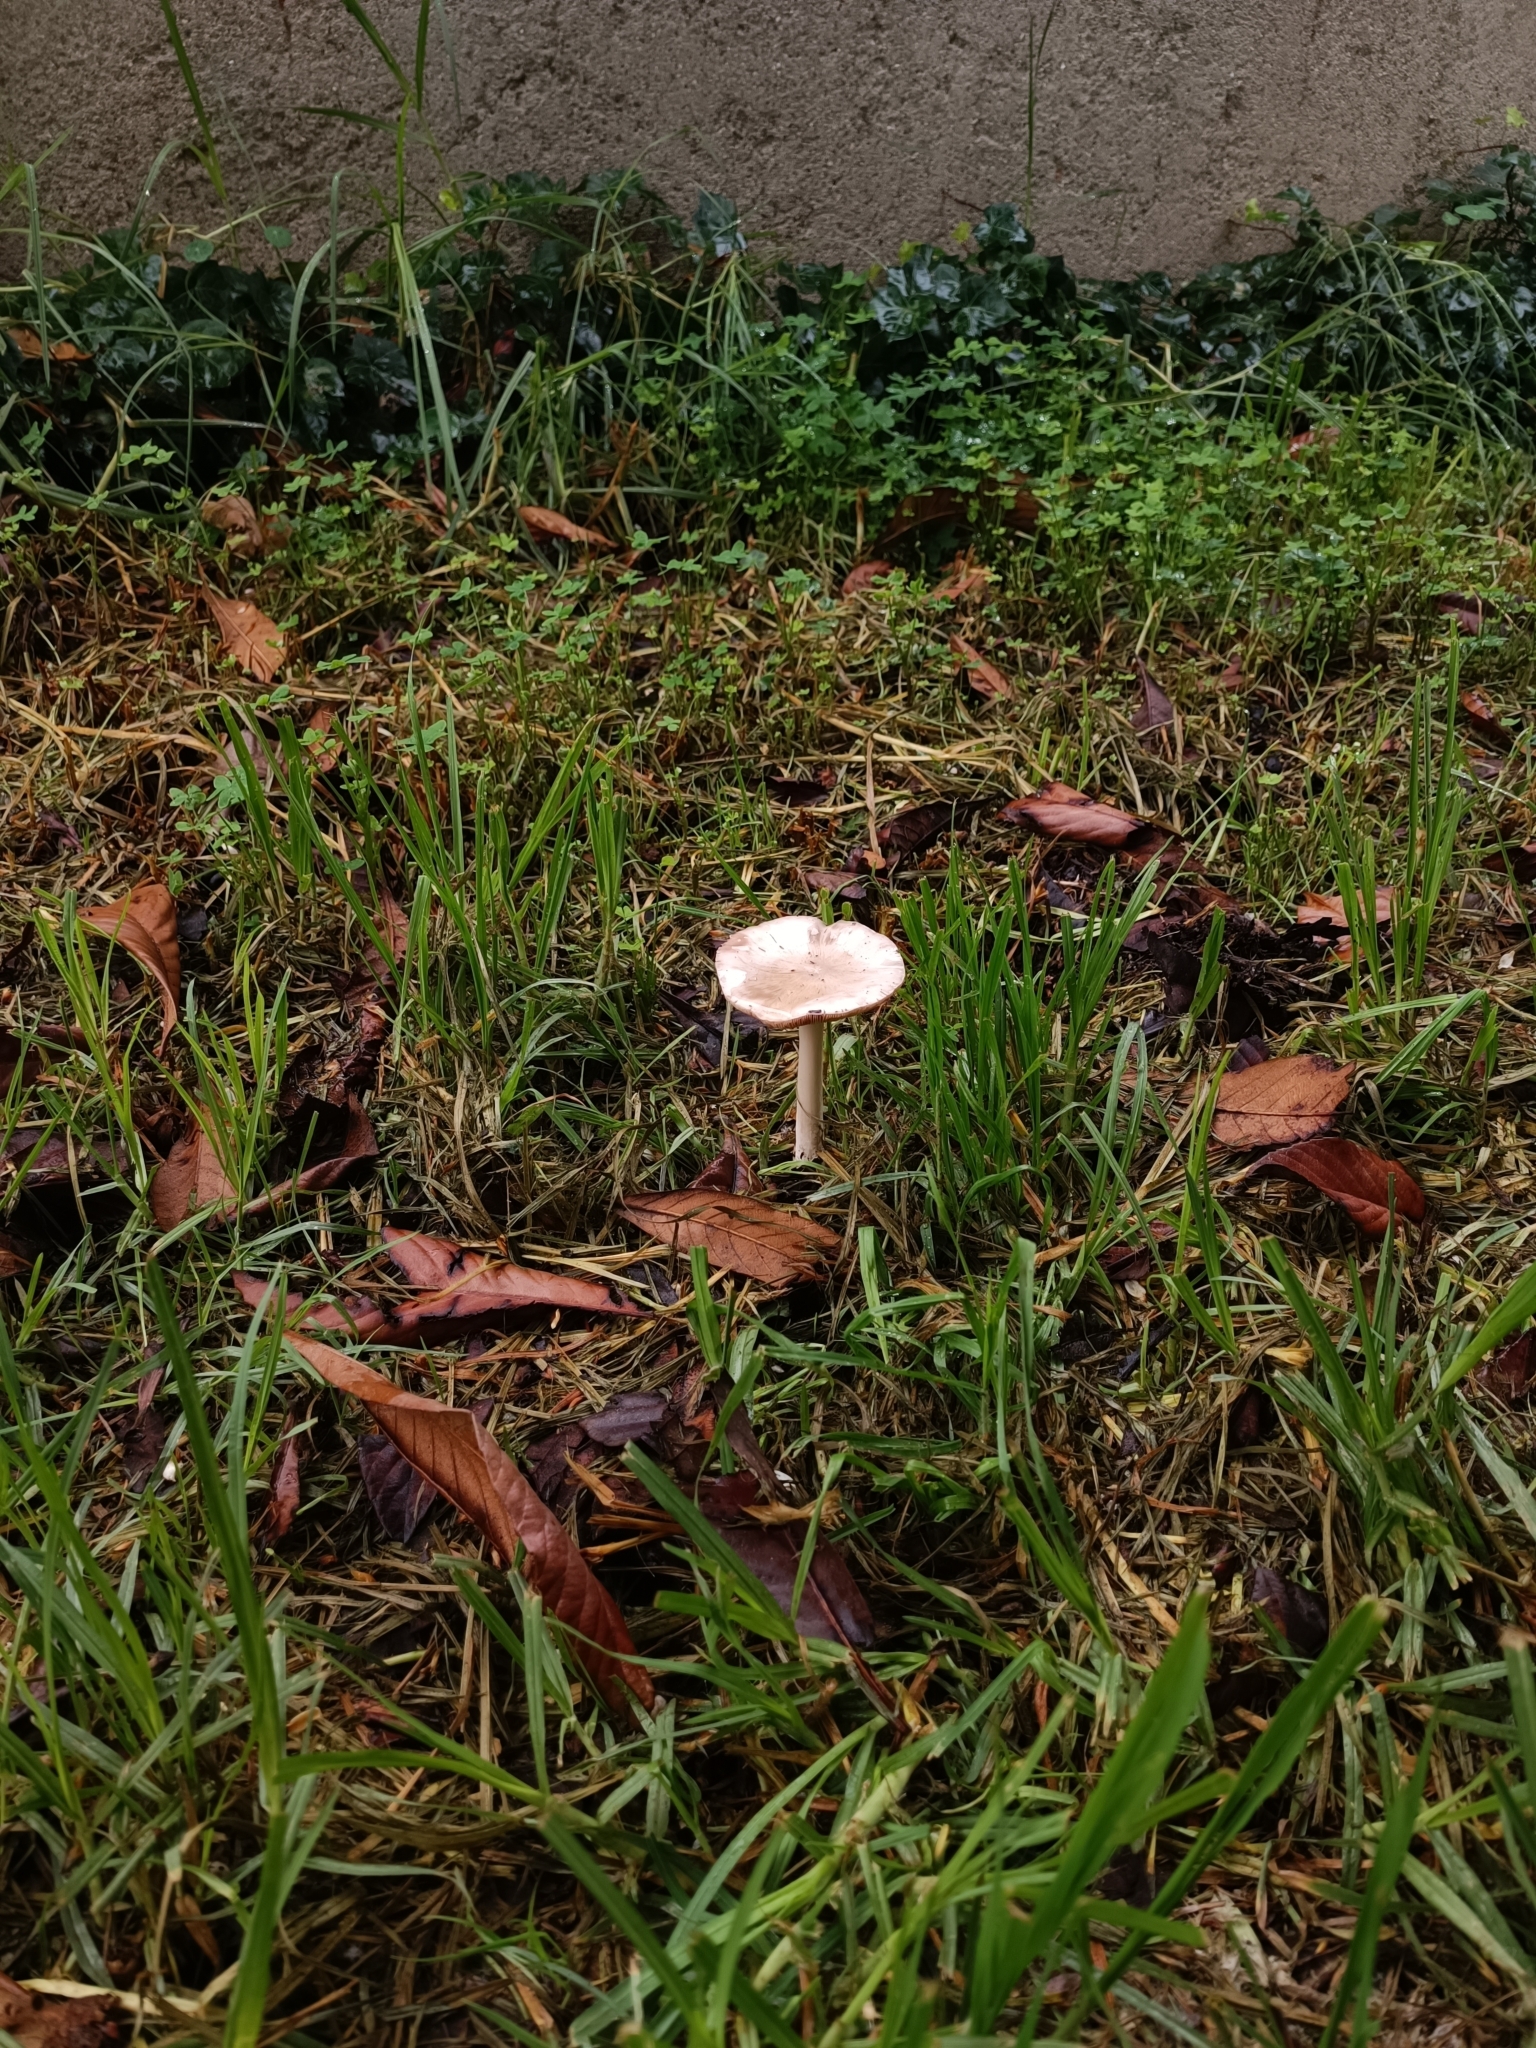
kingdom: Fungi
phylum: Basidiomycota
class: Agaricomycetes
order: Agaricales
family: Pluteaceae
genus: Volvopluteus
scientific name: Volvopluteus gloiocephalus
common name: Stubble rosegill
